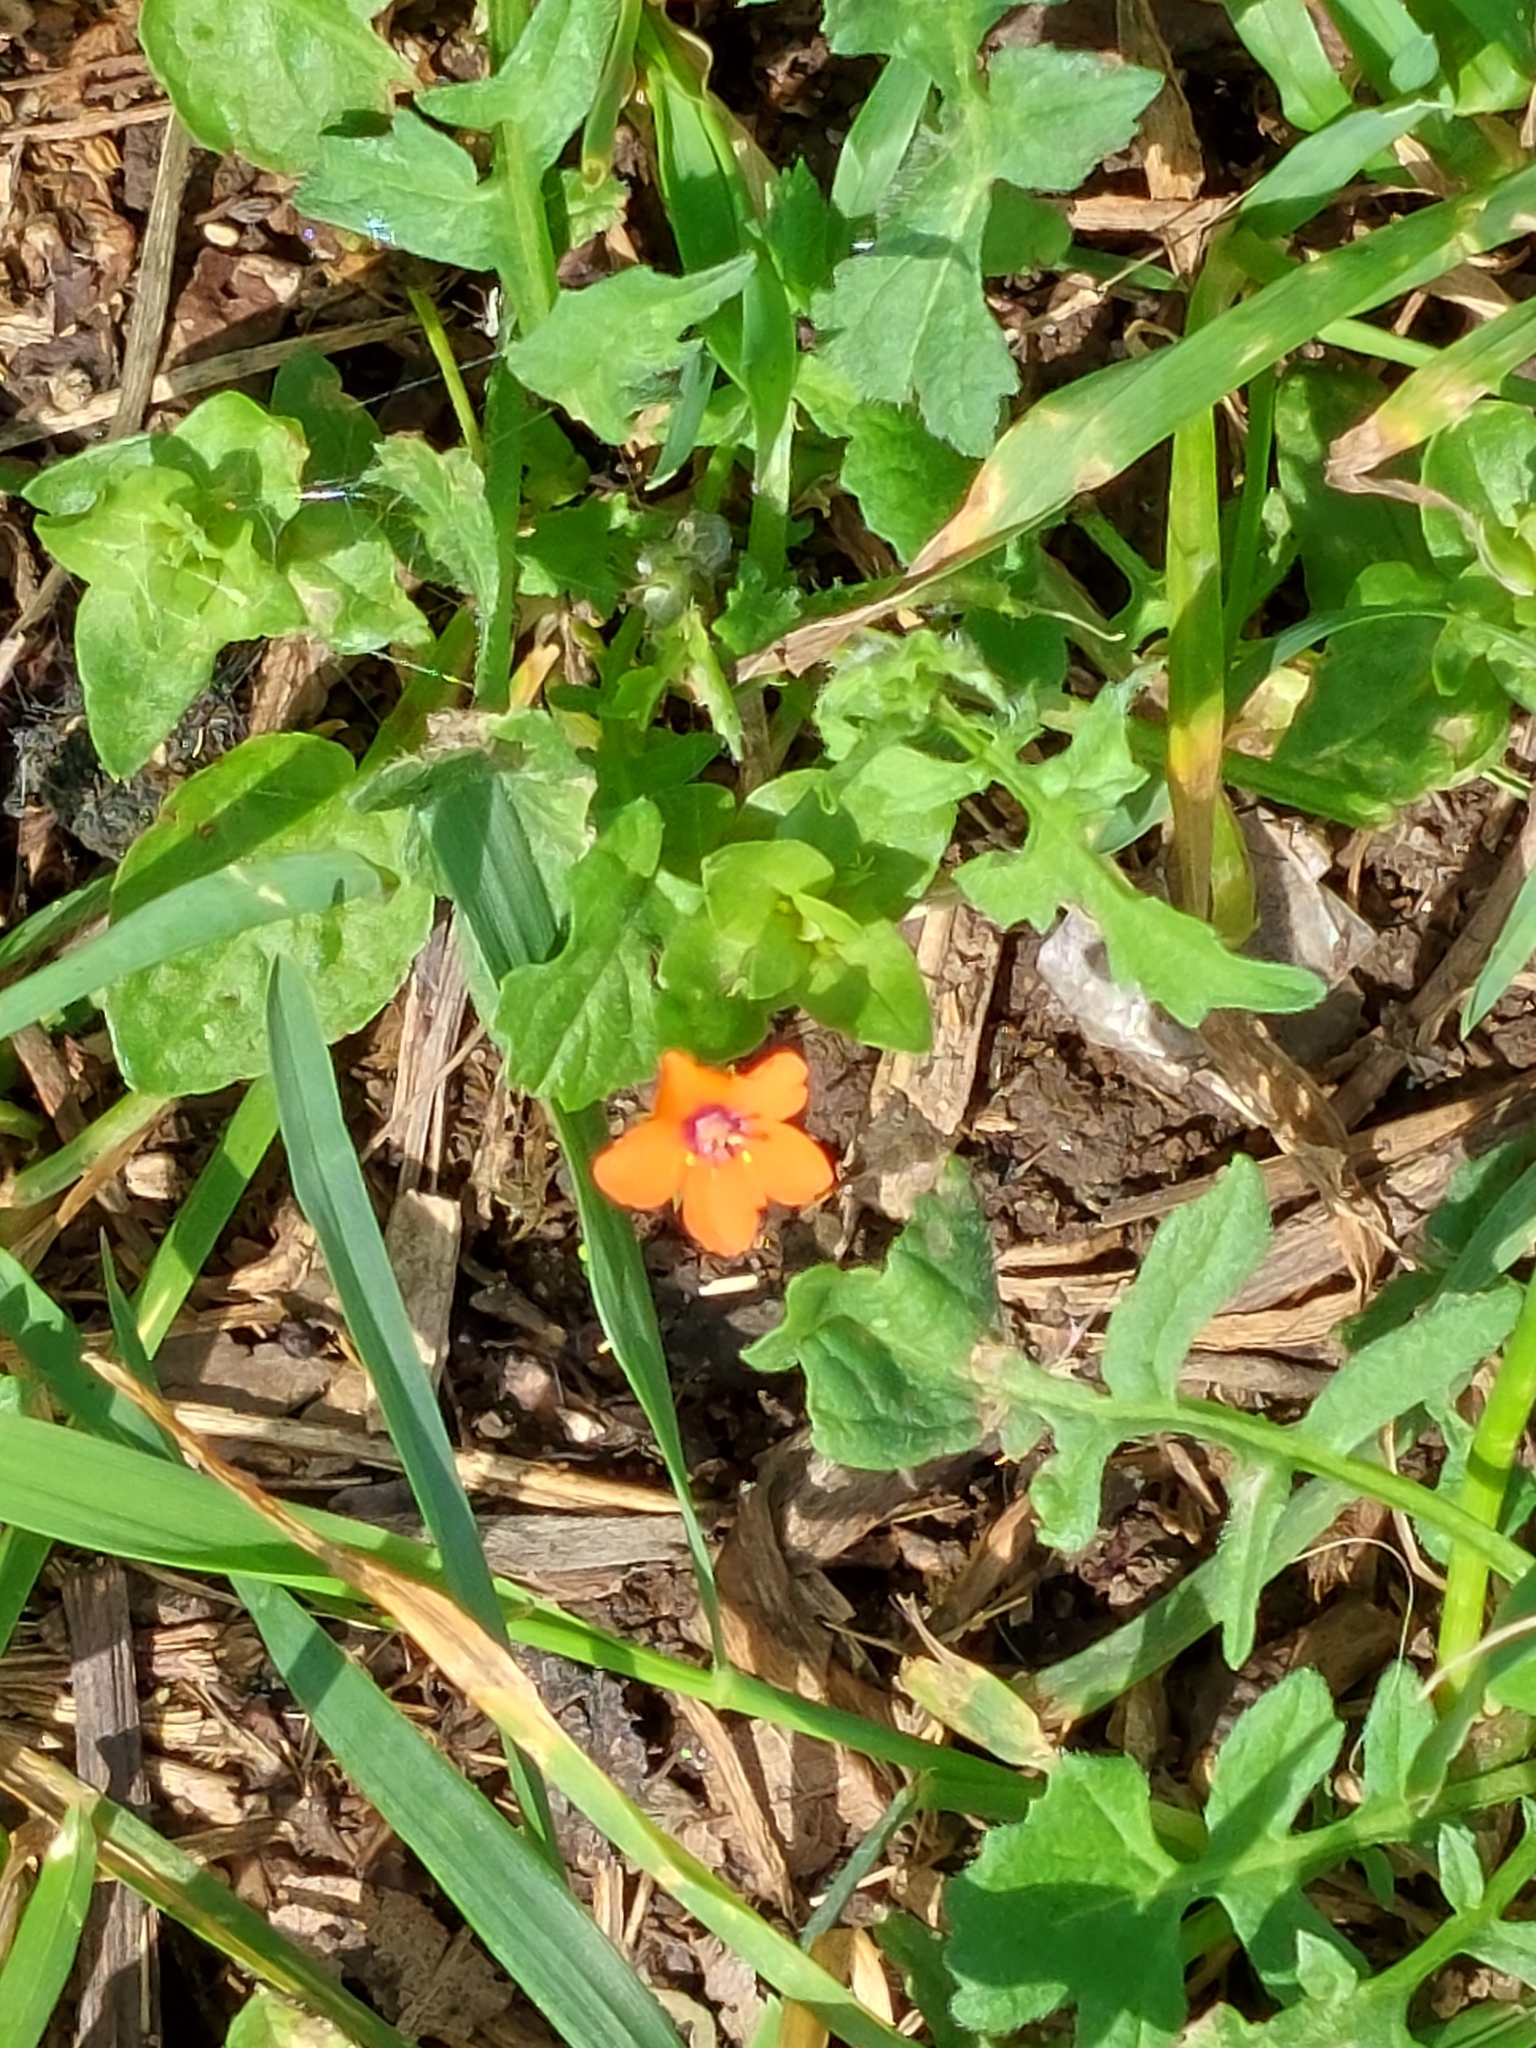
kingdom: Plantae
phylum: Tracheophyta
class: Magnoliopsida
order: Ericales
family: Primulaceae
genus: Lysimachia
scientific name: Lysimachia arvensis
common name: Scarlet pimpernel
